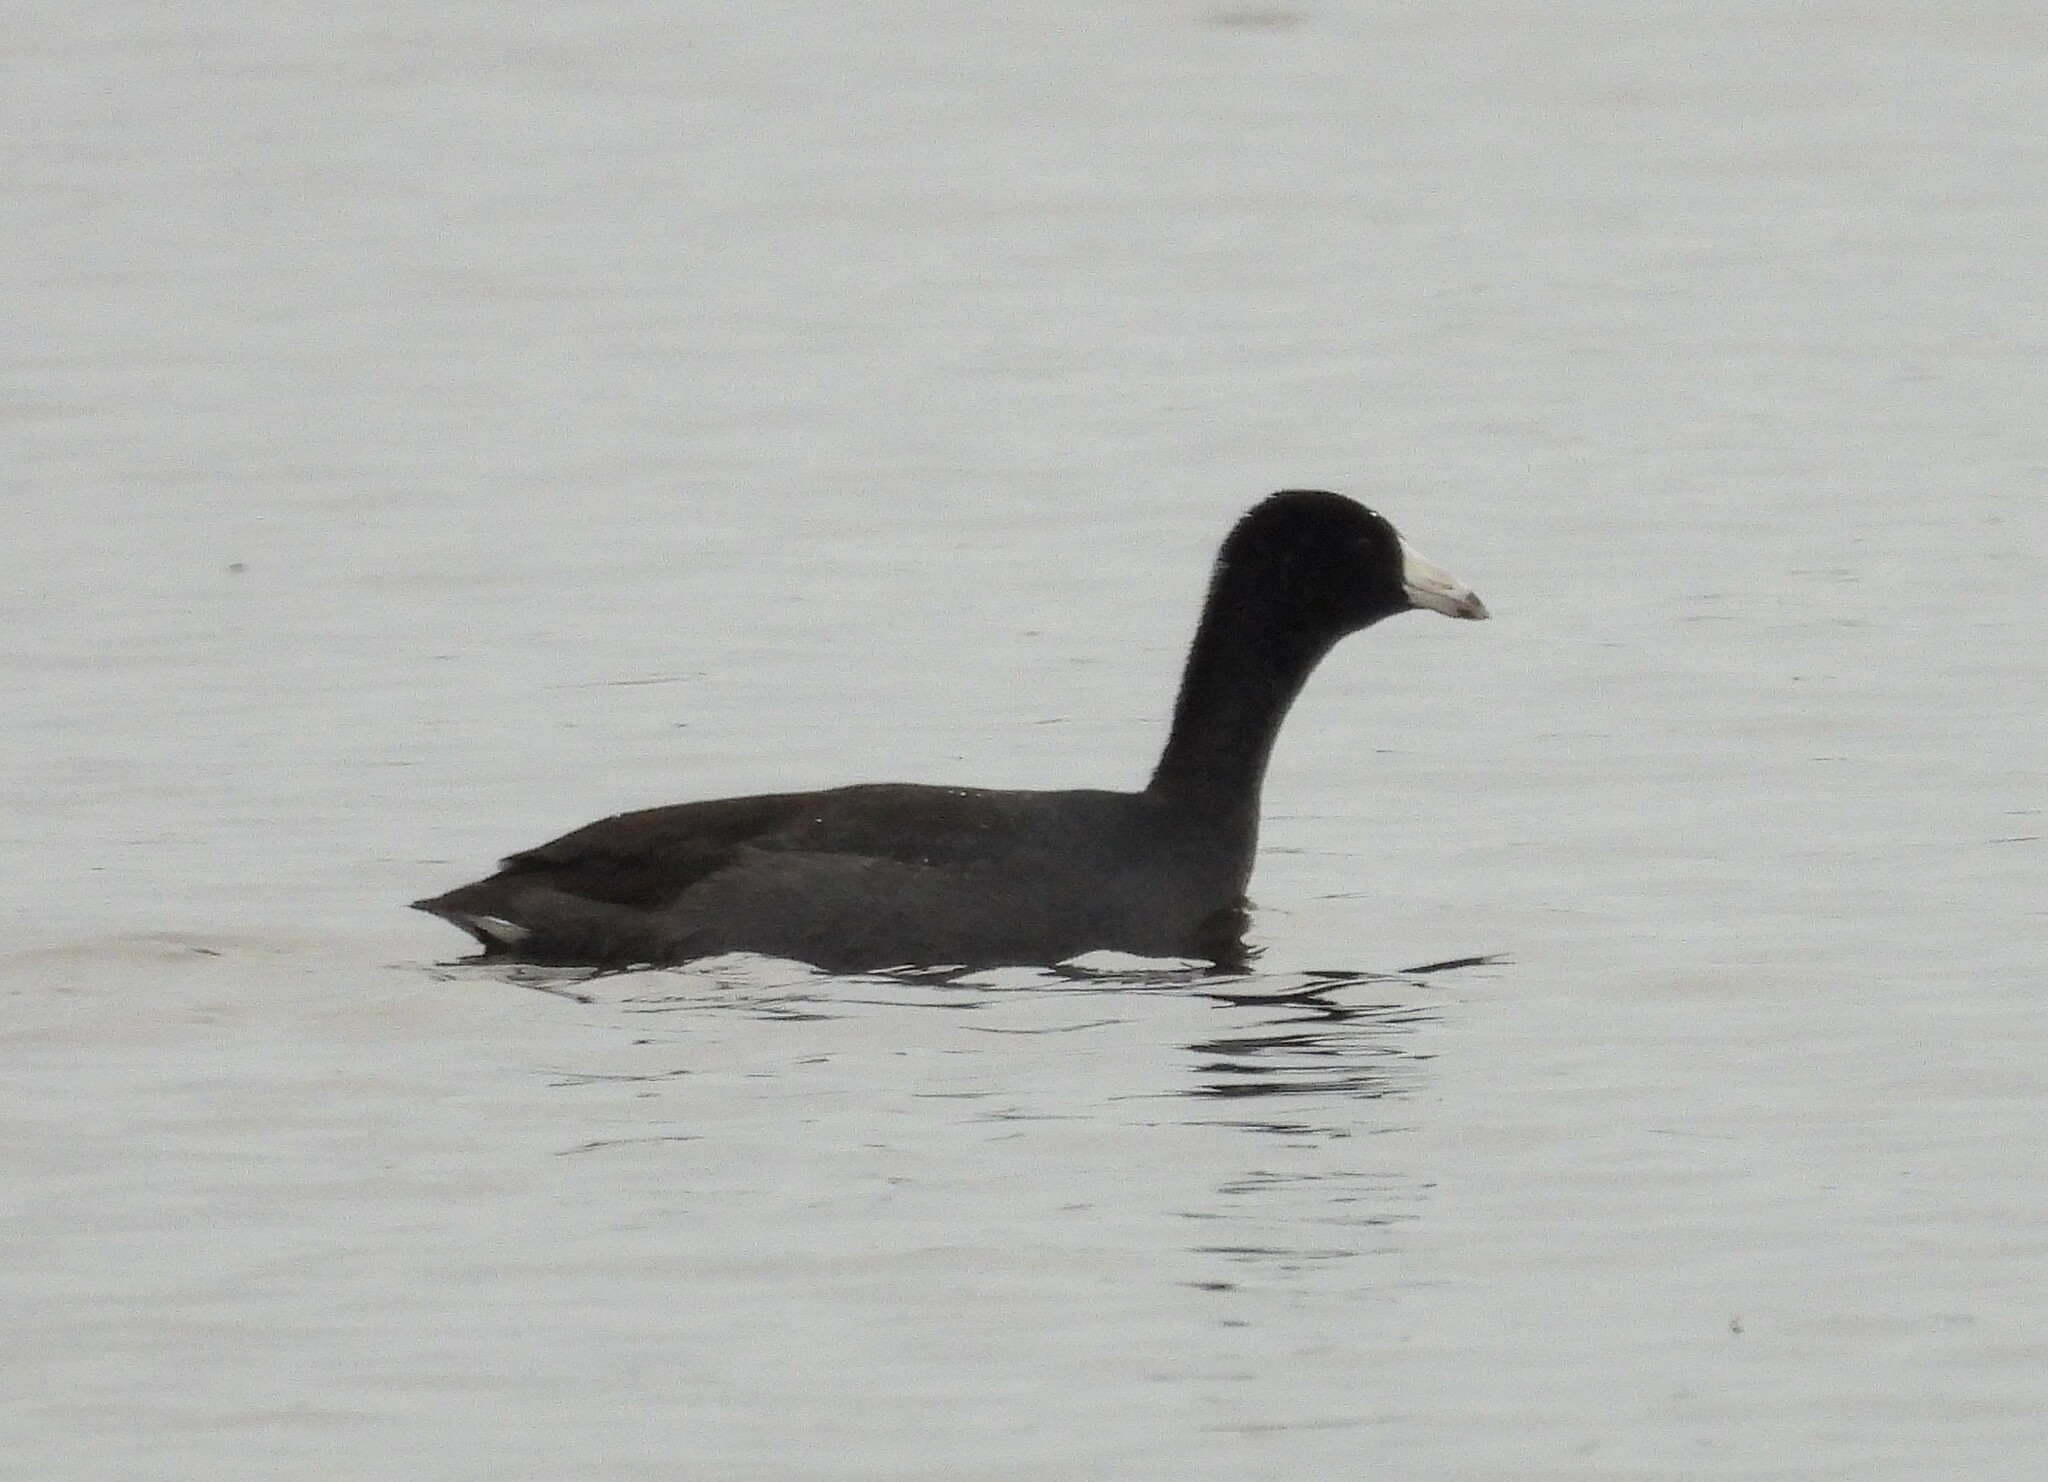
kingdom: Animalia
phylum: Chordata
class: Aves
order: Gruiformes
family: Rallidae
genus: Fulica
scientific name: Fulica americana
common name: American coot
